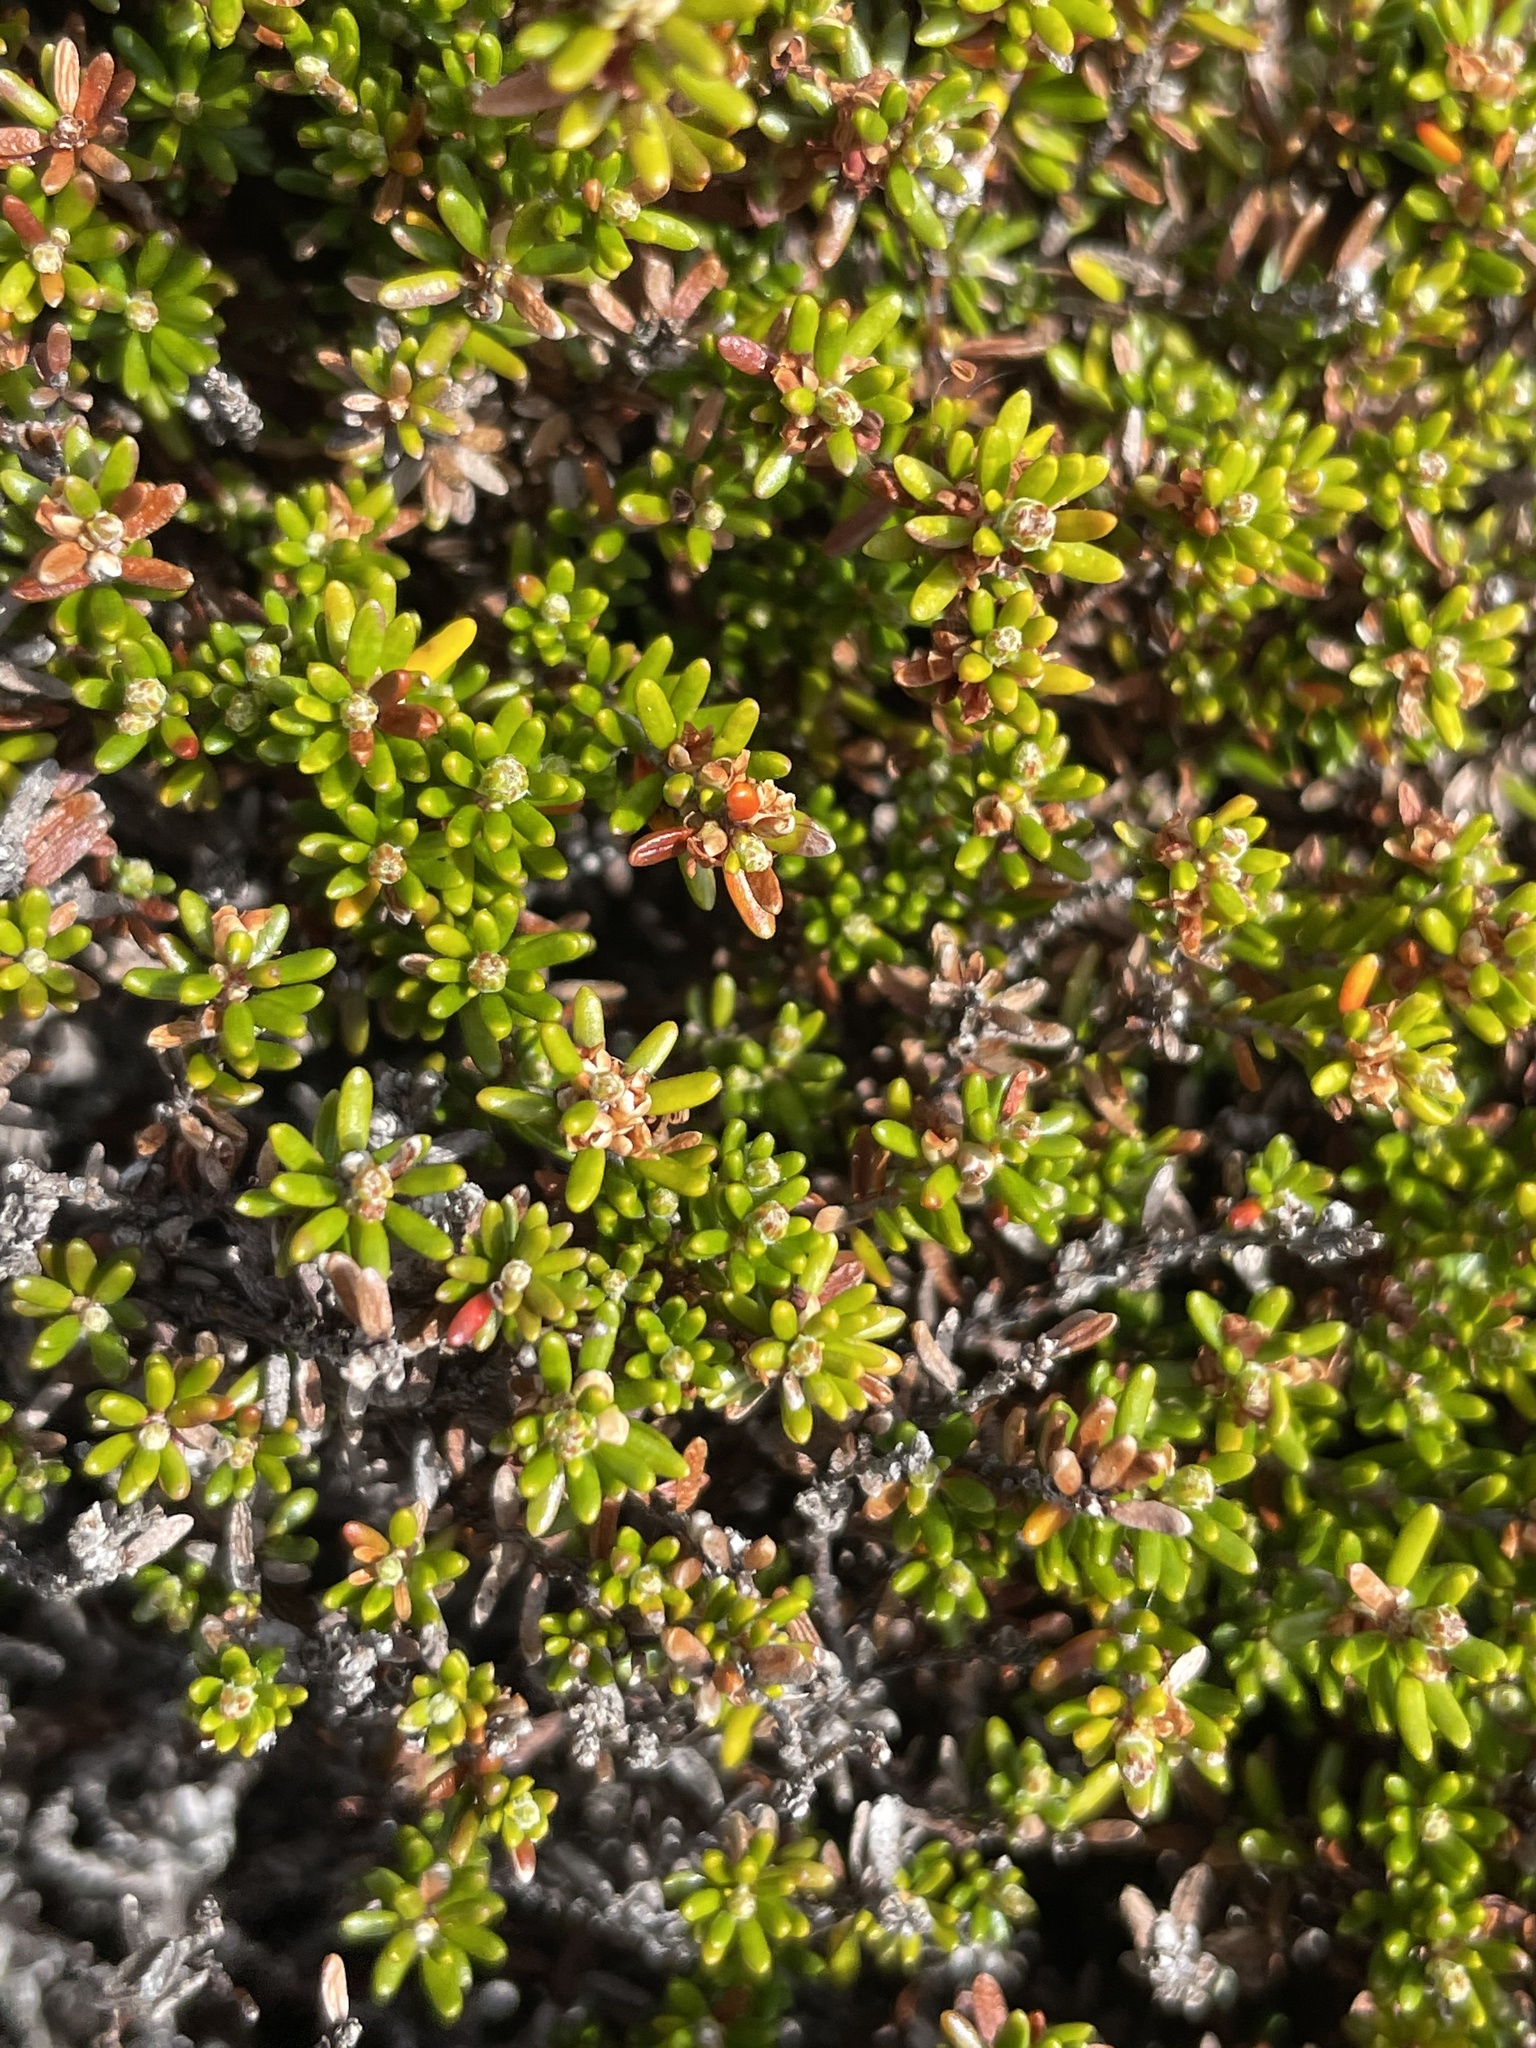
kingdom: Plantae
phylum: Tracheophyta
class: Magnoliopsida
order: Ericales
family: Ericaceae
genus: Empetrum
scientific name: Empetrum nigrum
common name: Black crowberry
